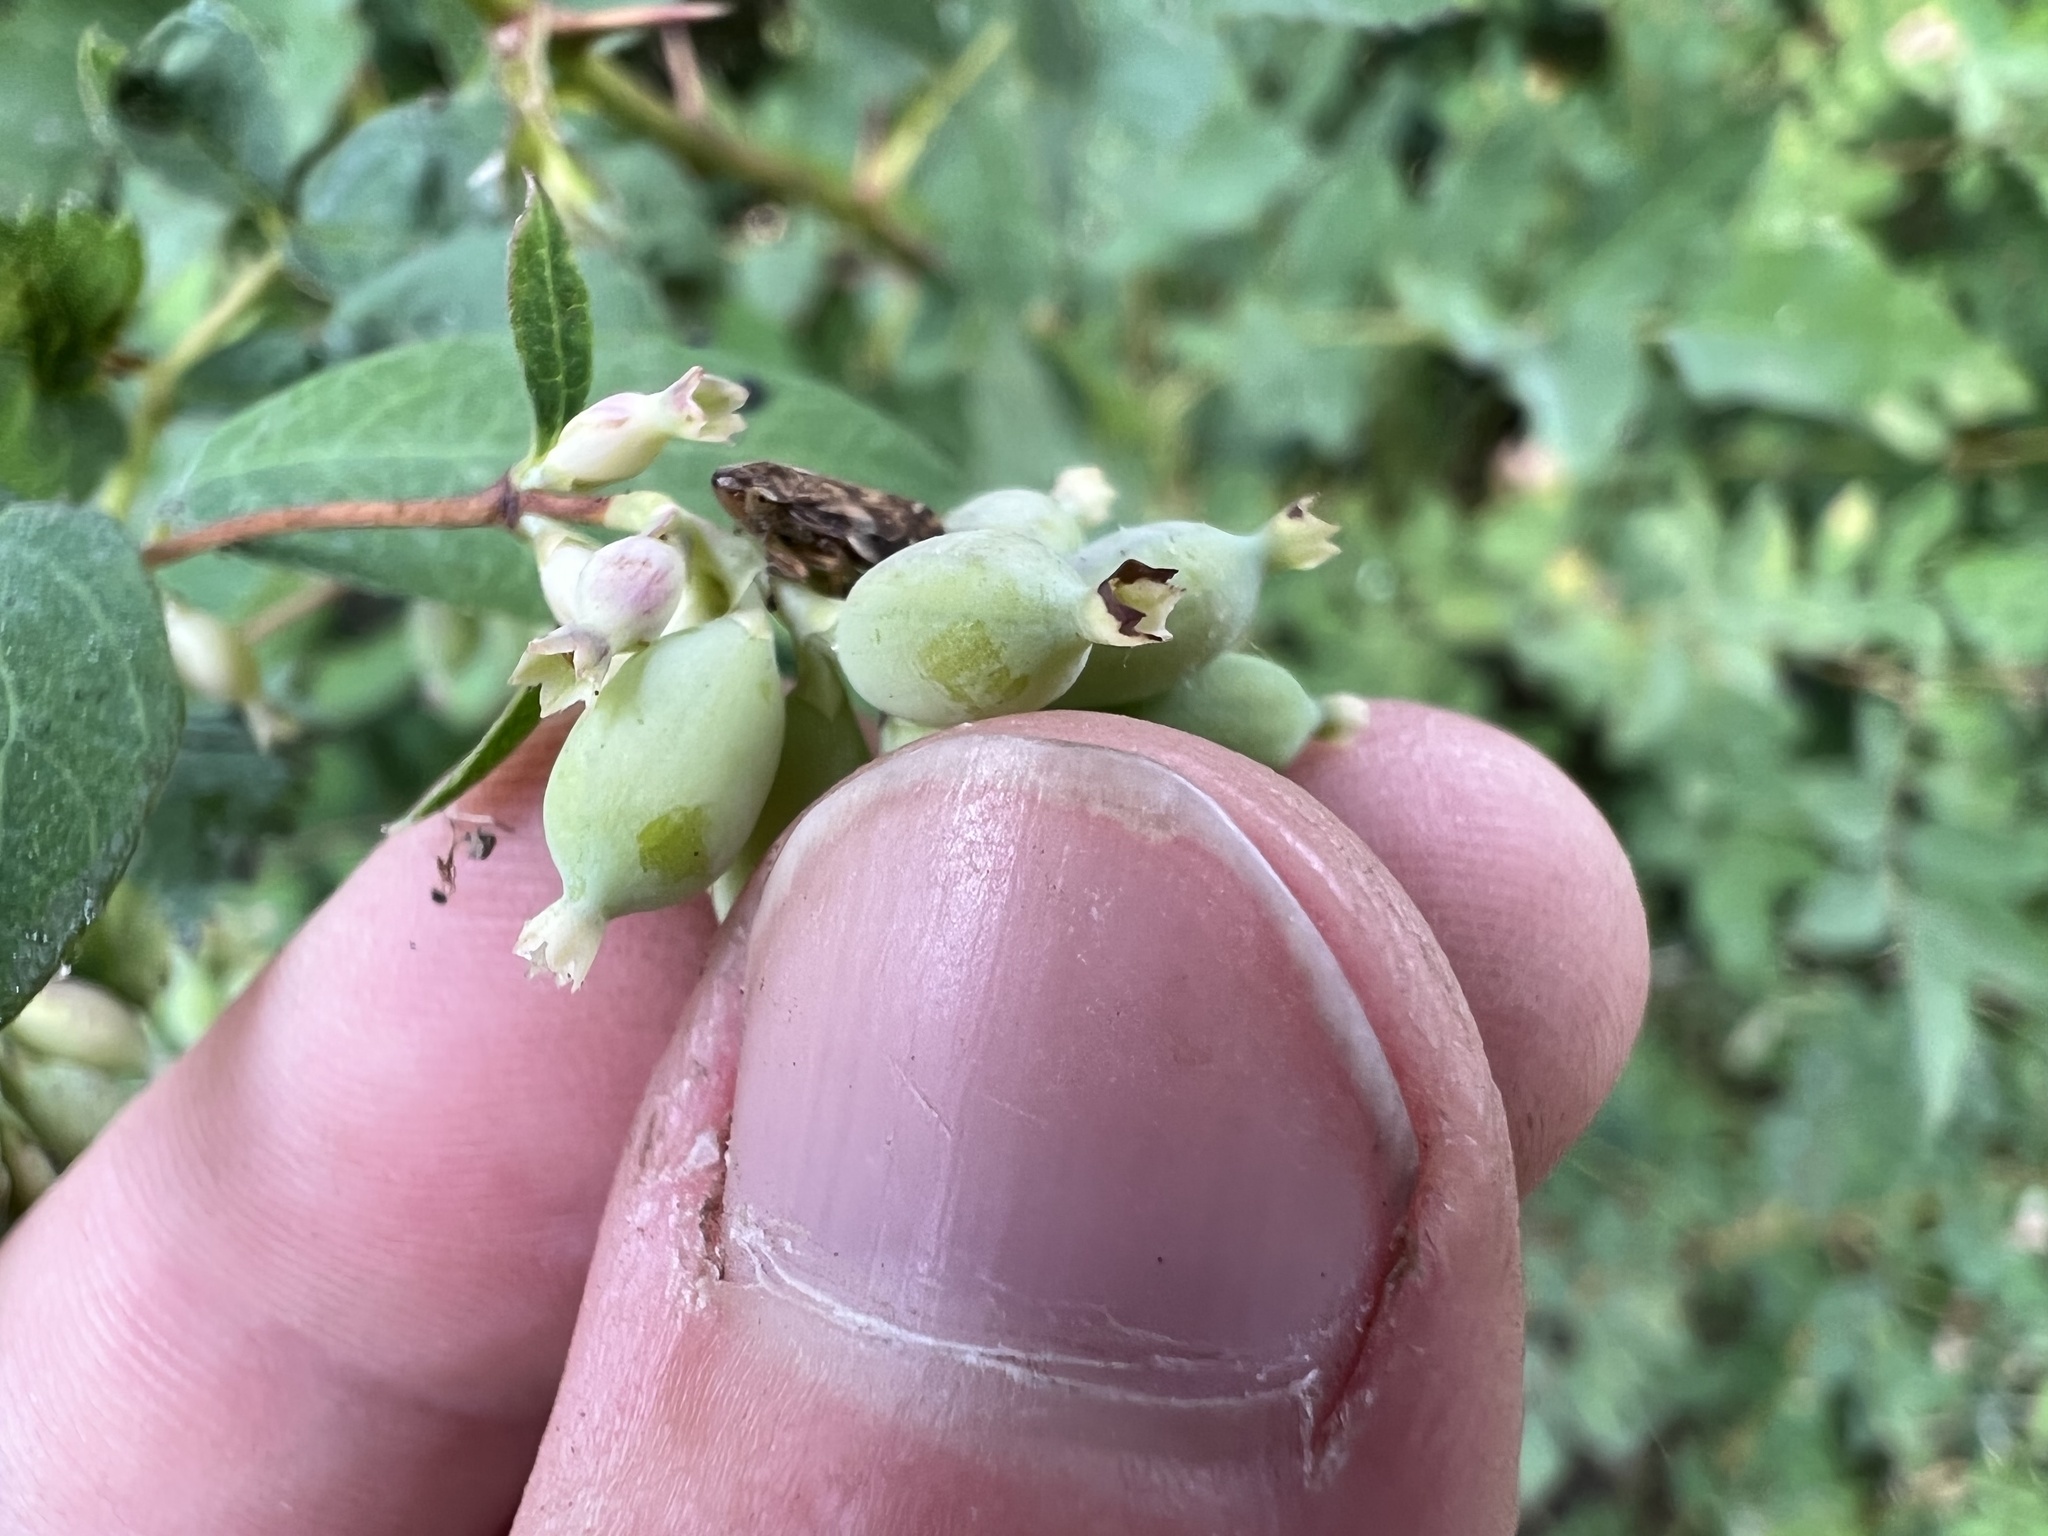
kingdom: Animalia
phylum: Arthropoda
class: Insecta
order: Hemiptera
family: Aphrophoridae
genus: Philaenus
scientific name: Philaenus spumarius
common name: Meadow spittlebug
